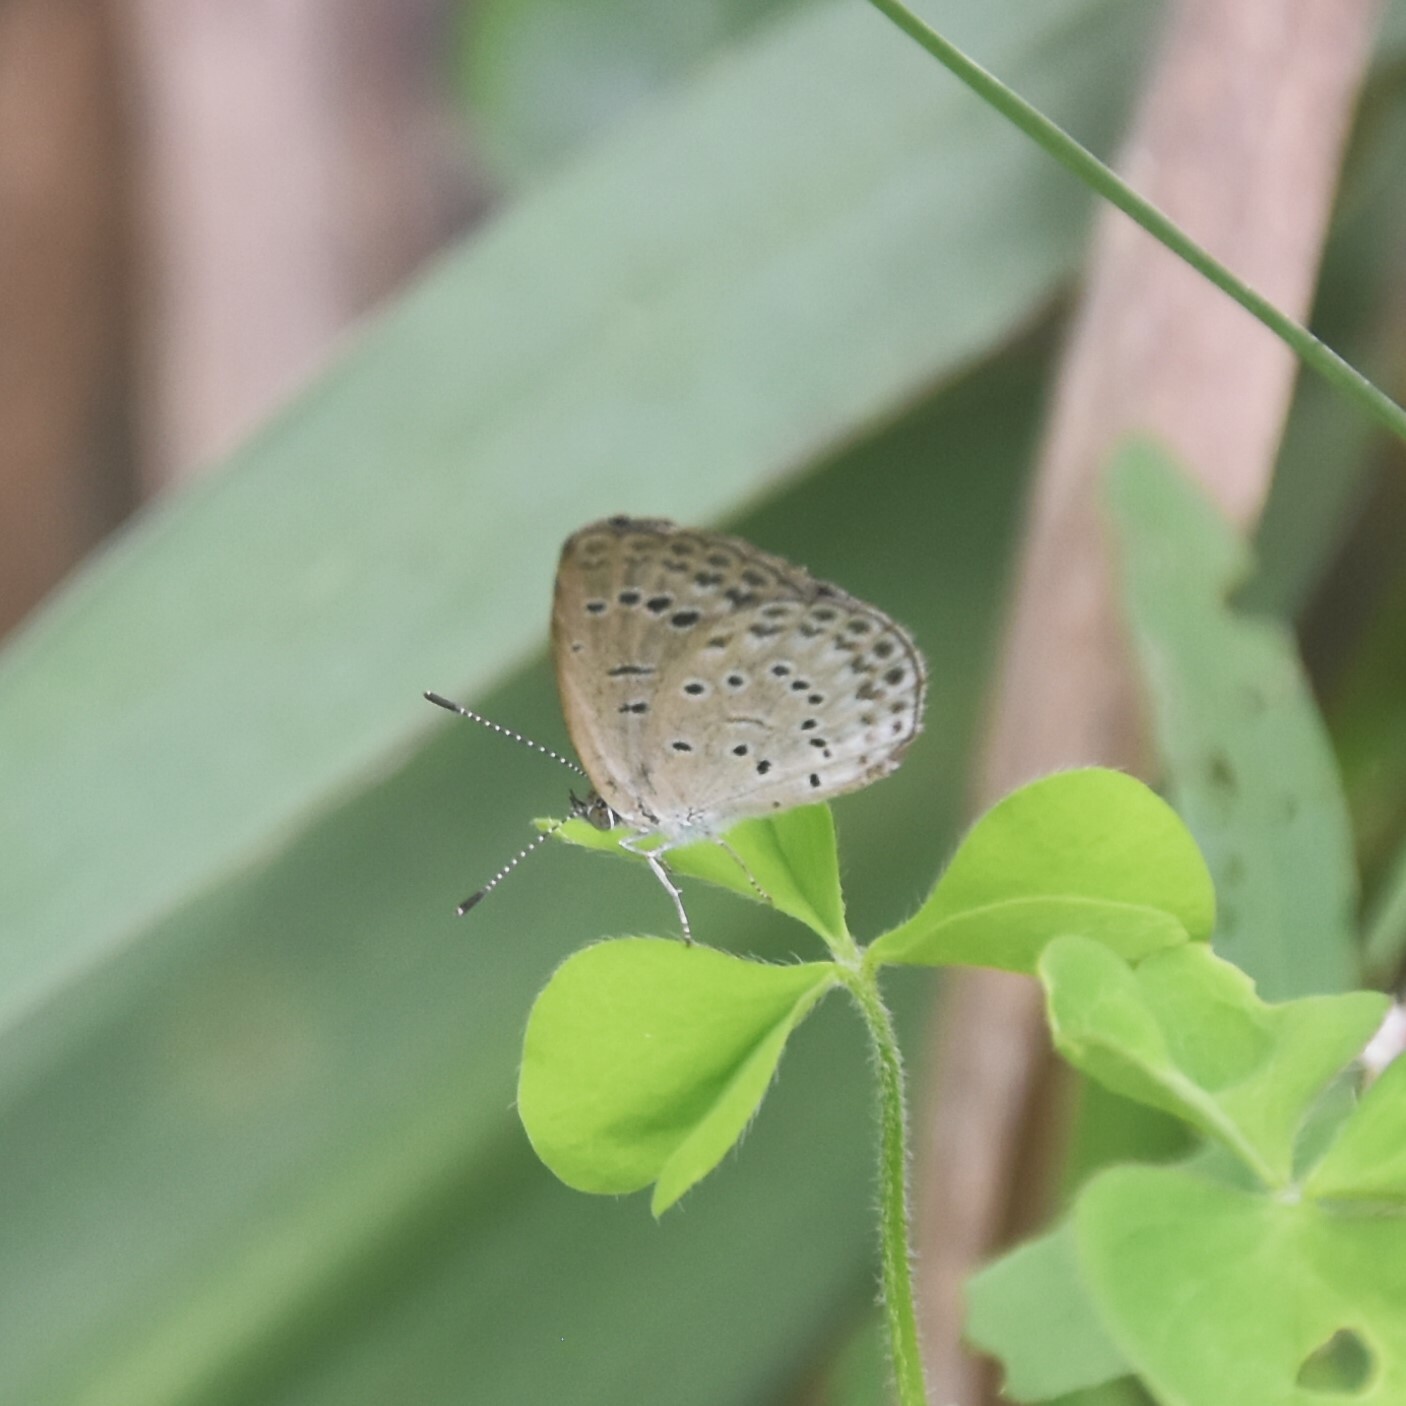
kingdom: Animalia
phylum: Arthropoda
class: Insecta
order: Lepidoptera
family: Lycaenidae
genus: Pseudozizeeria
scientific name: Pseudozizeeria maha
